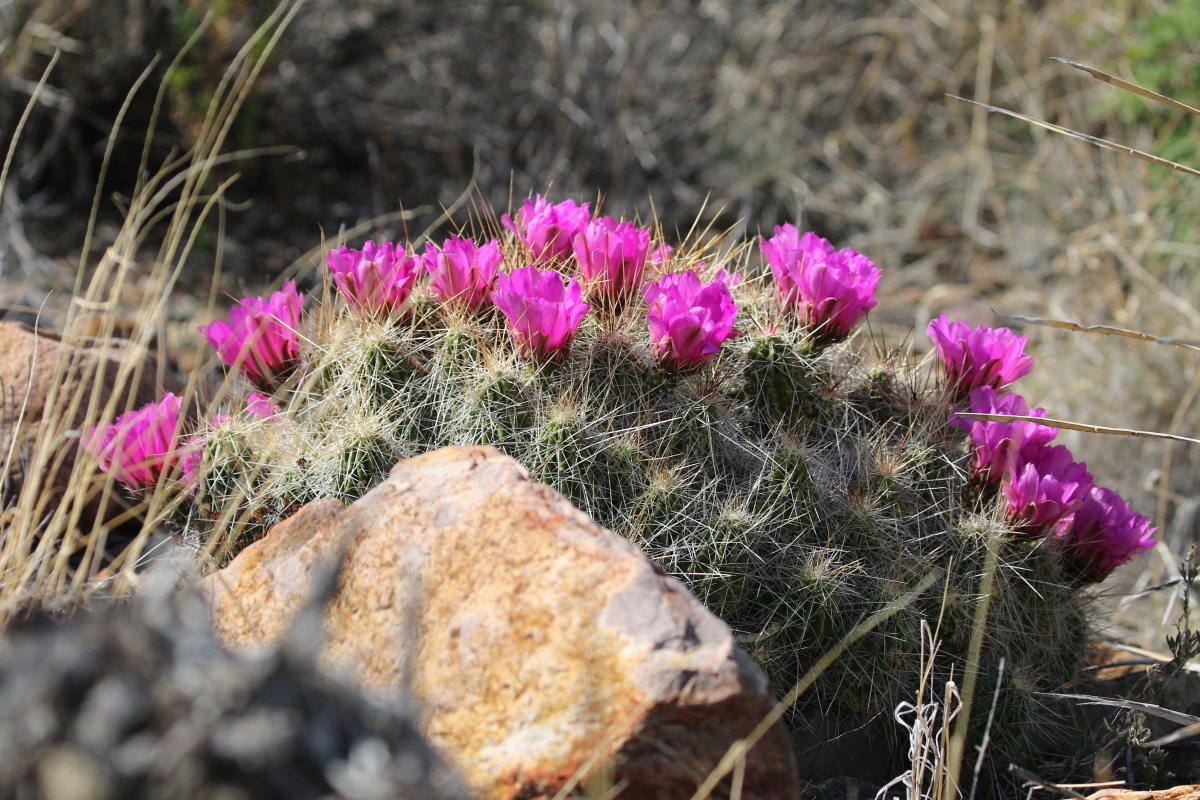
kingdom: Plantae
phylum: Tracheophyta
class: Magnoliopsida
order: Caryophyllales
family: Cactaceae
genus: Echinocereus
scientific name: Echinocereus stramineus
